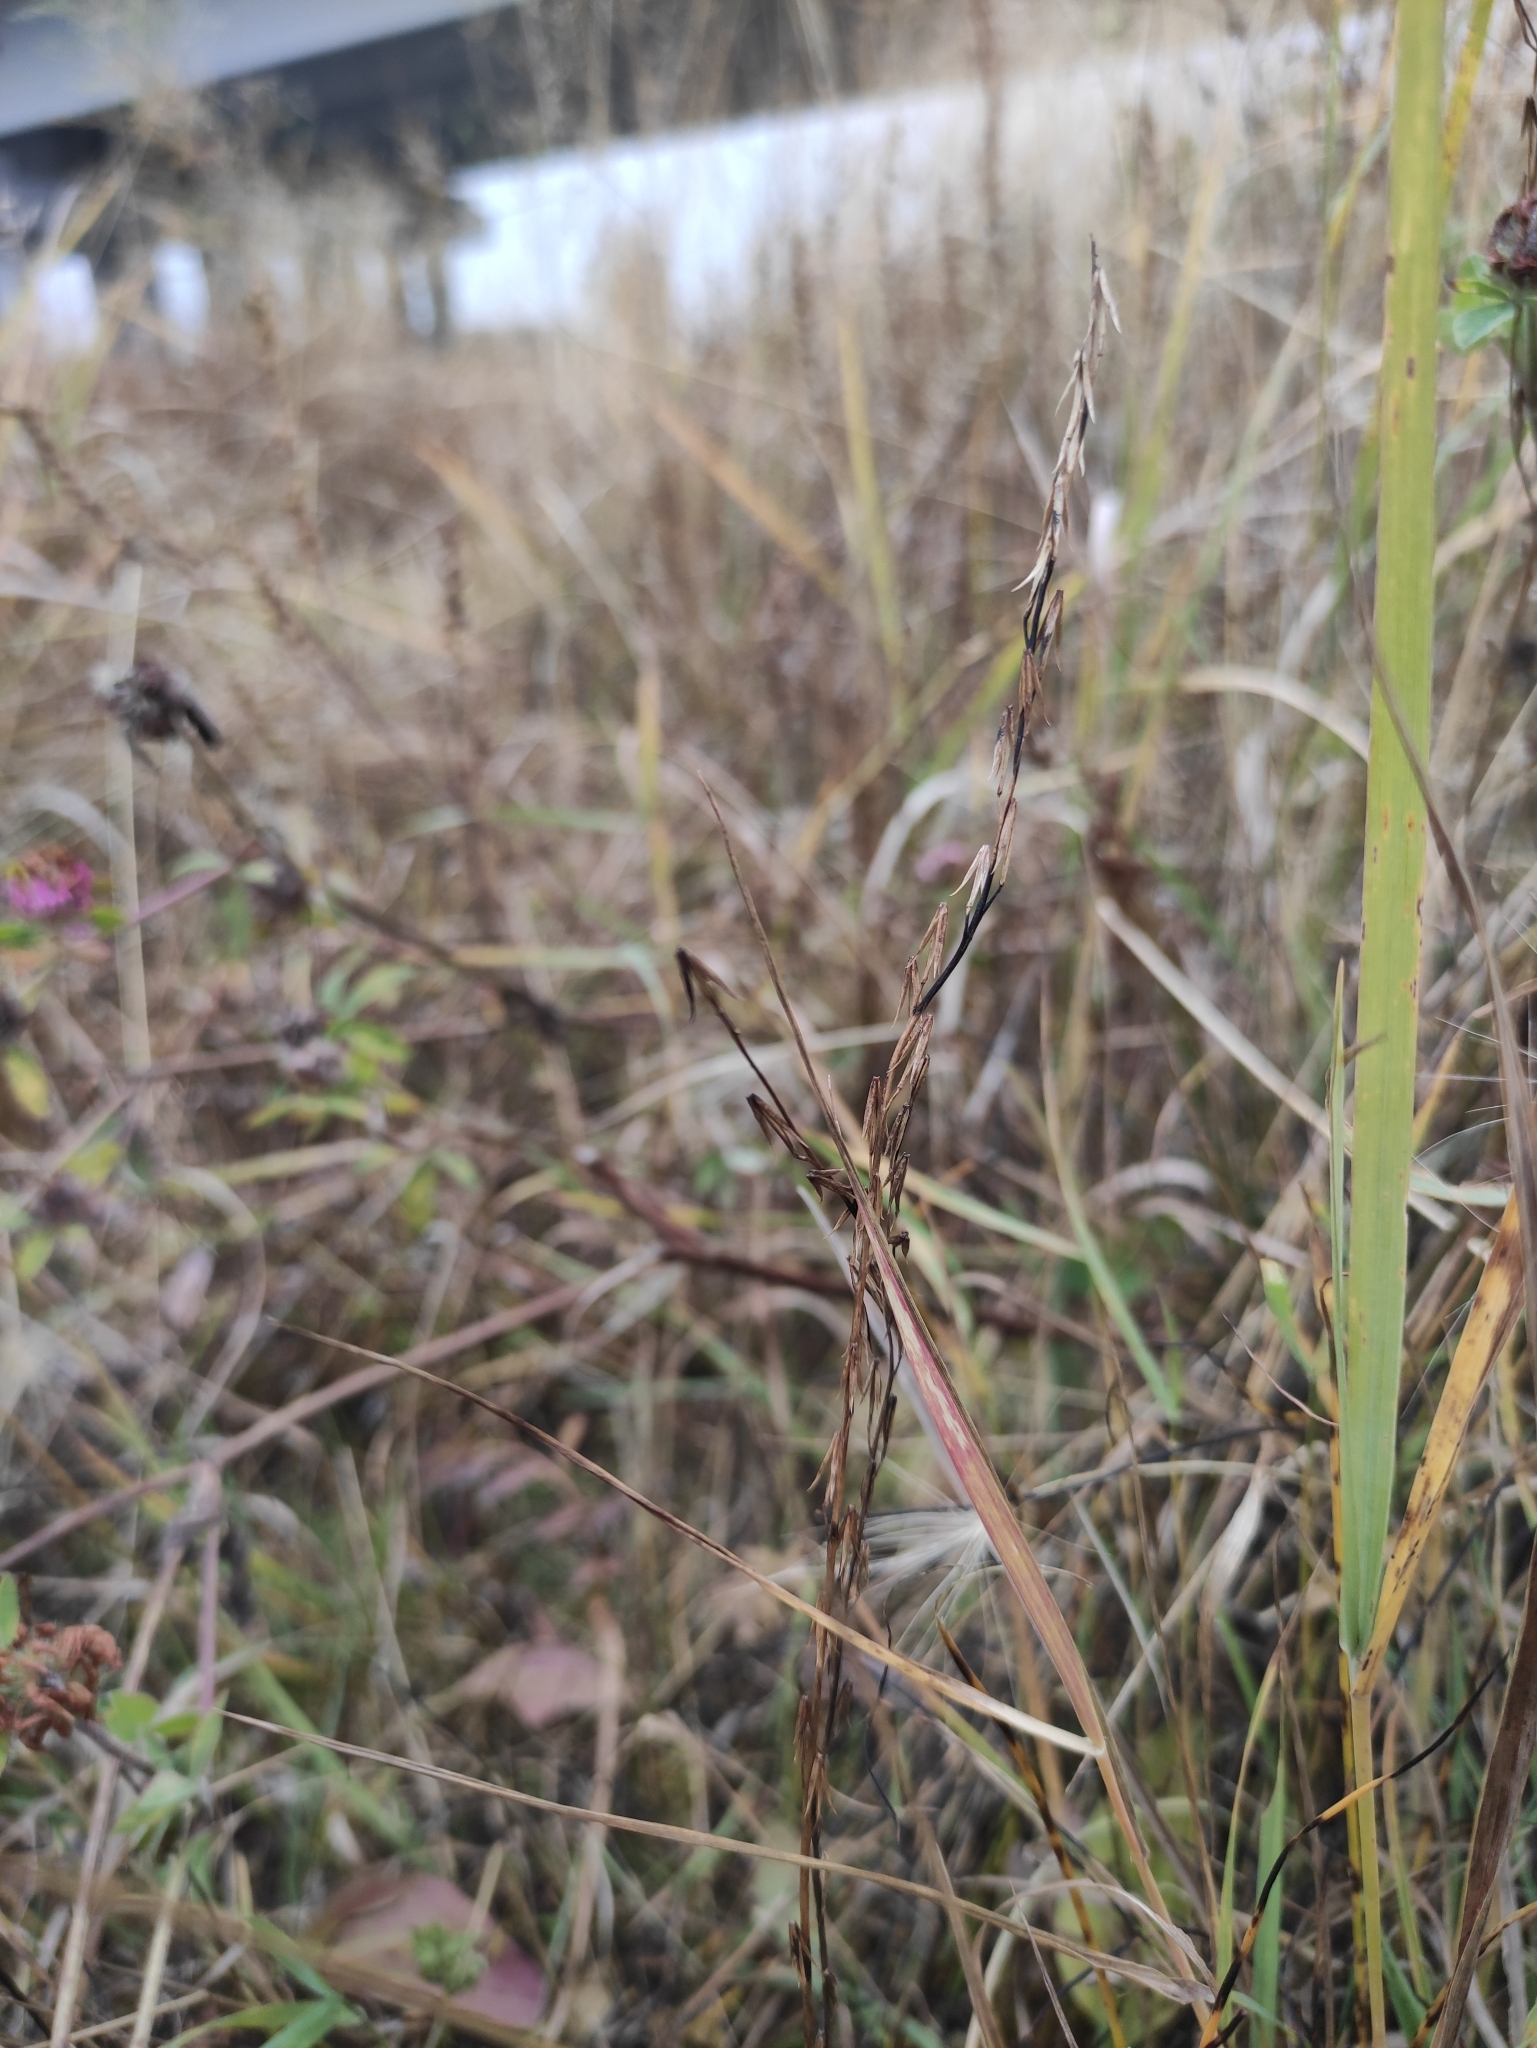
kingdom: Plantae
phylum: Tracheophyta
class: Liliopsida
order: Alismatales
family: Juncaginaceae
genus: Triglochin
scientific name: Triglochin palustris
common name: Marsh arrowgrass
